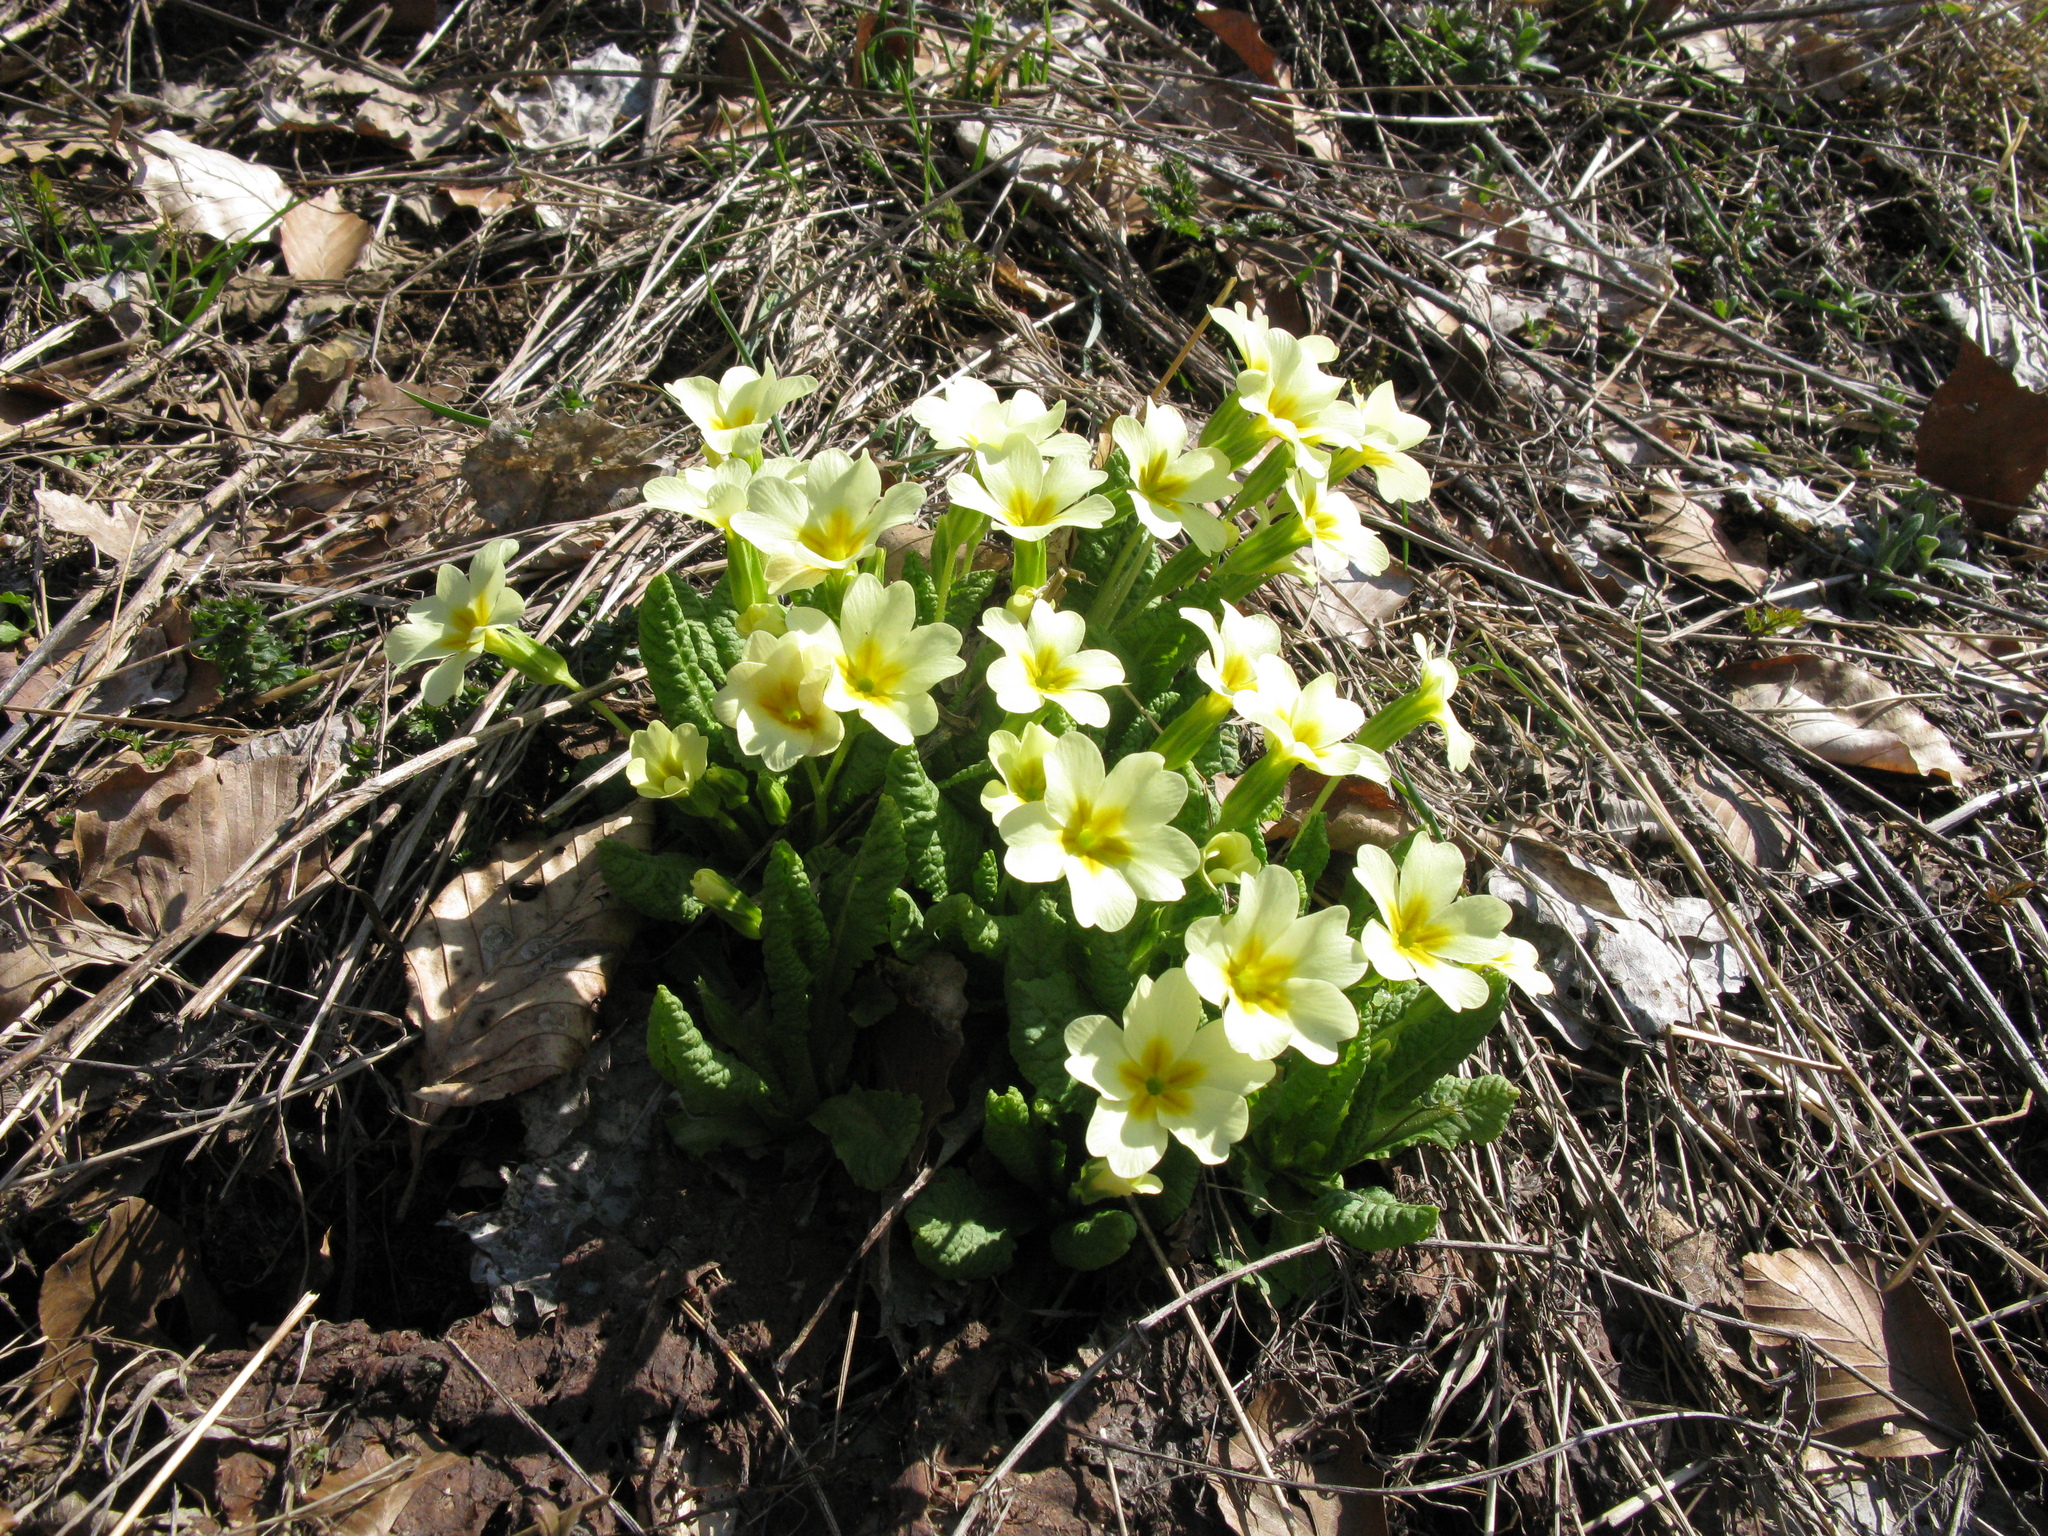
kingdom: Plantae
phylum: Tracheophyta
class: Magnoliopsida
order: Ericales
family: Primulaceae
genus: Primula
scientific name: Primula vulgaris
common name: Primrose
